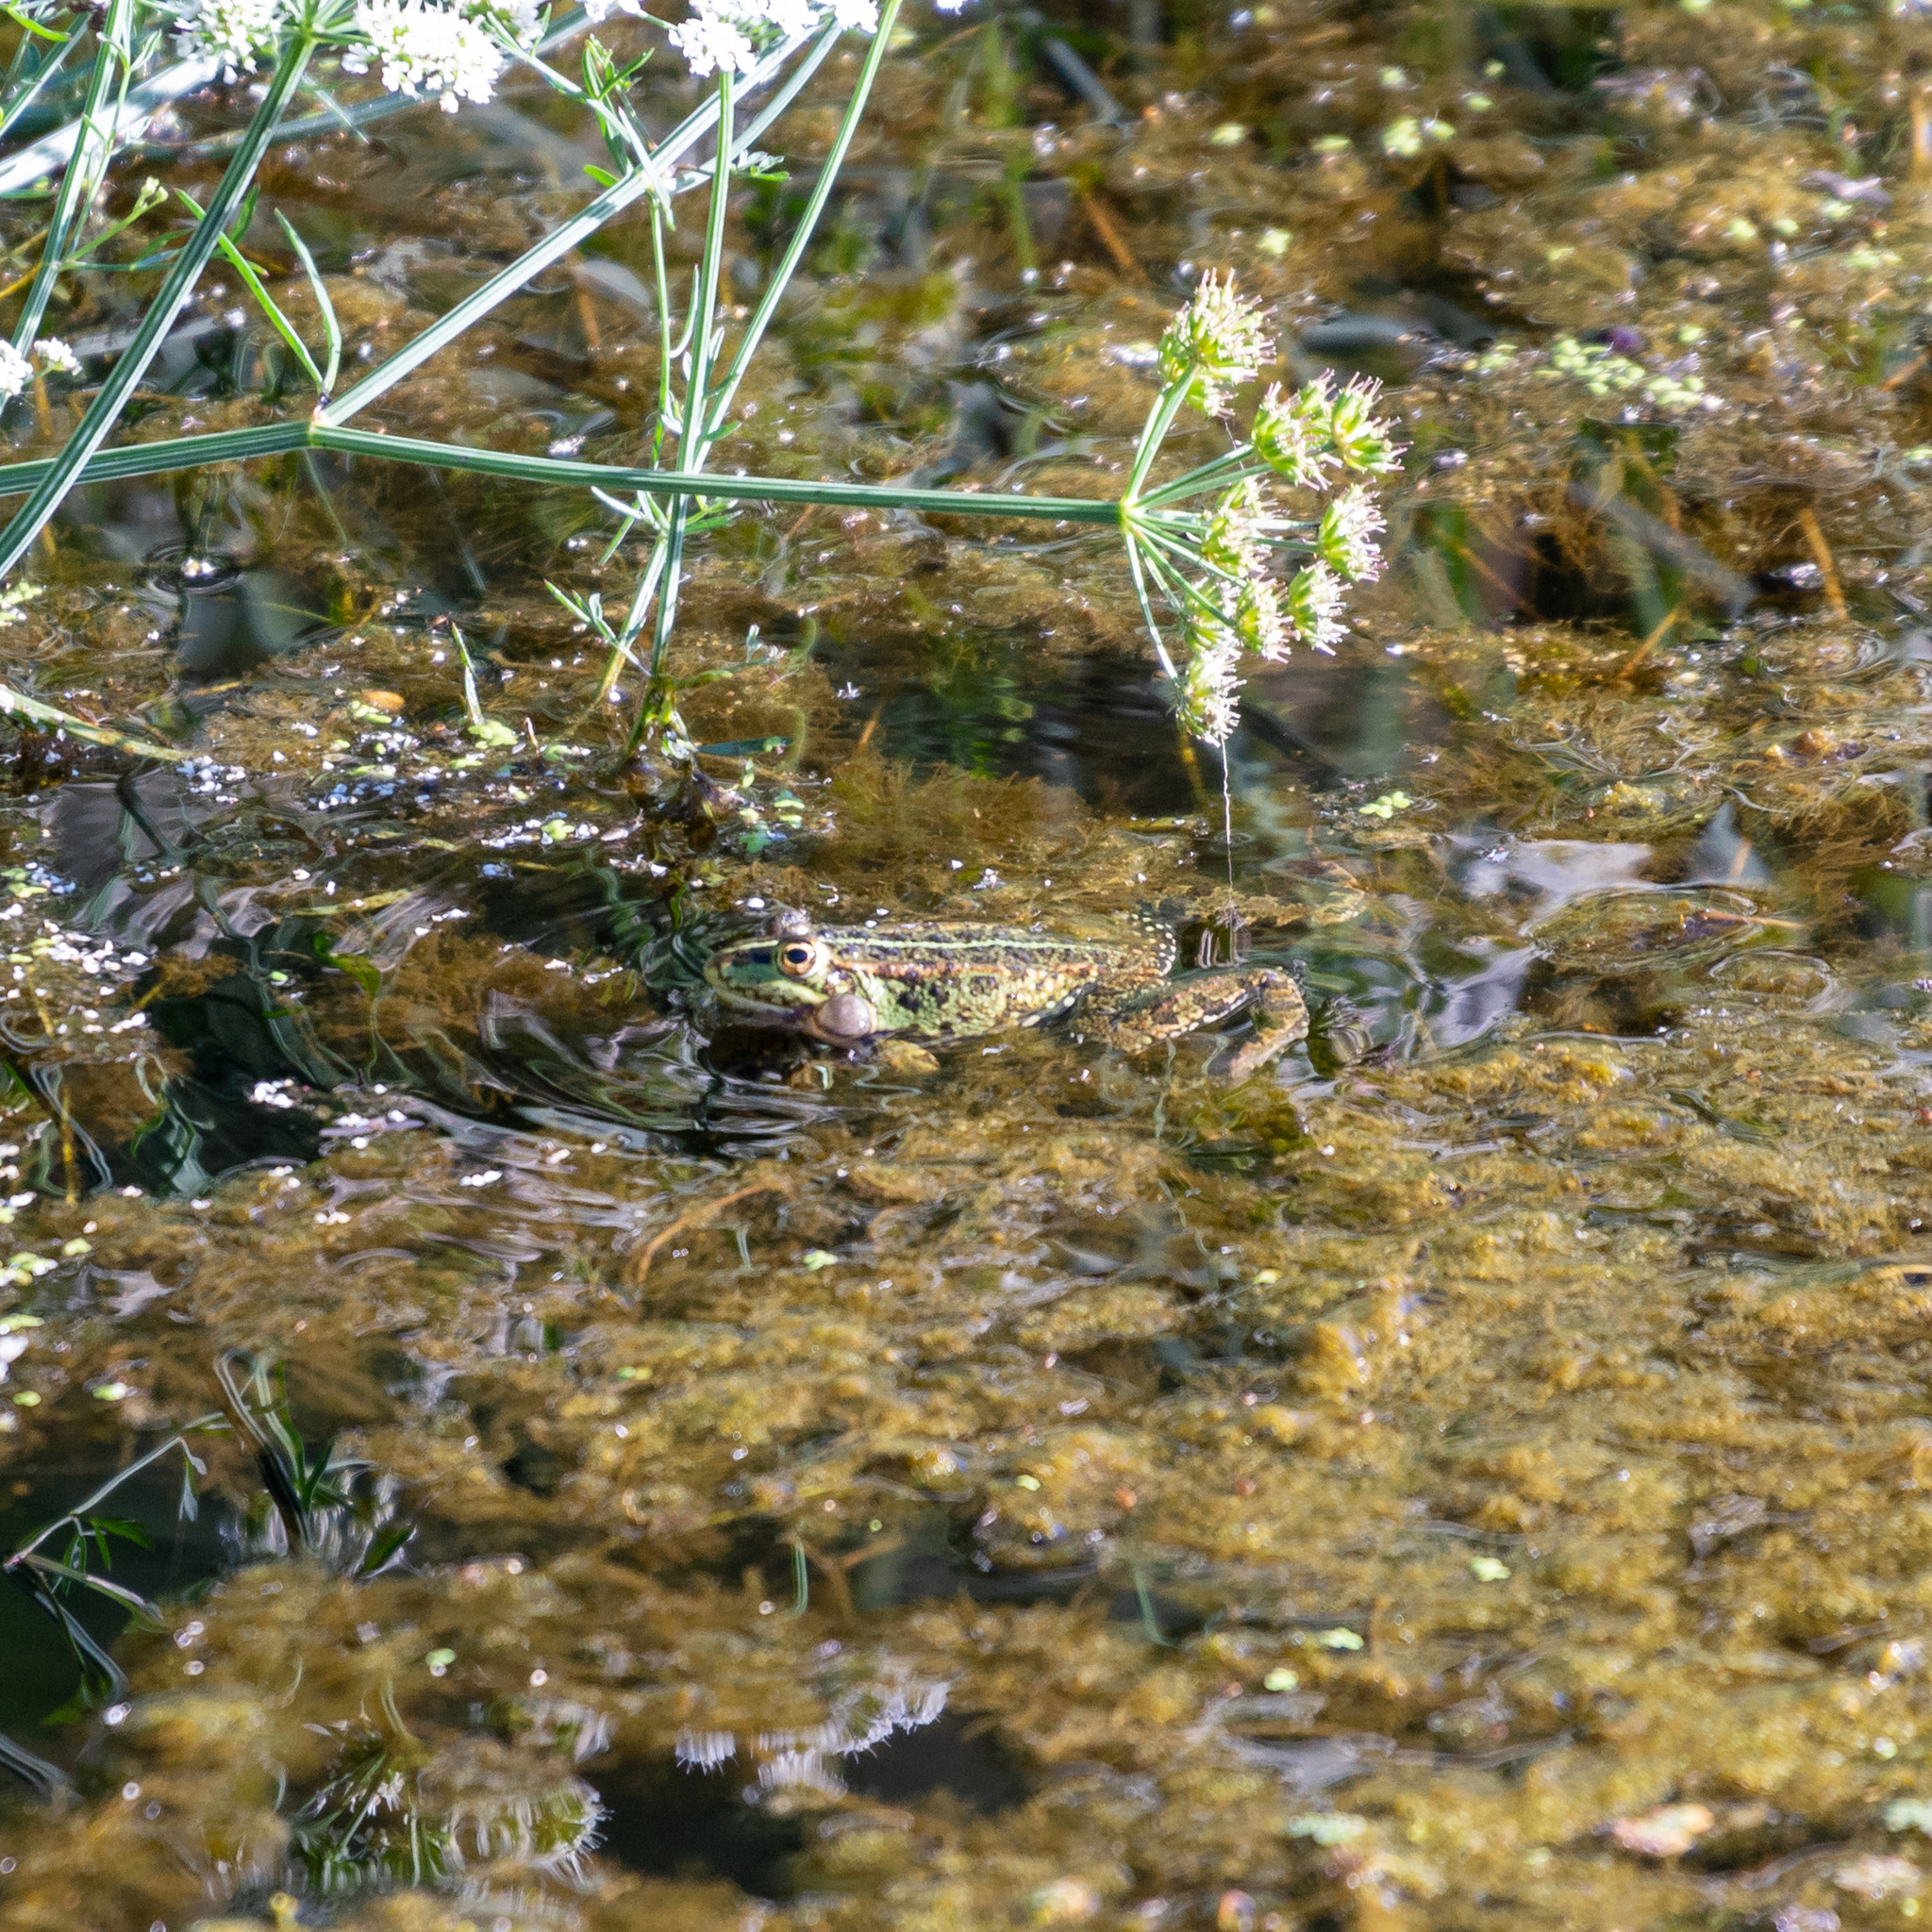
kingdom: Animalia
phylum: Chordata
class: Amphibia
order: Anura
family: Ranidae
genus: Pelophylax
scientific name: Pelophylax perezi
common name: Perez's frog
